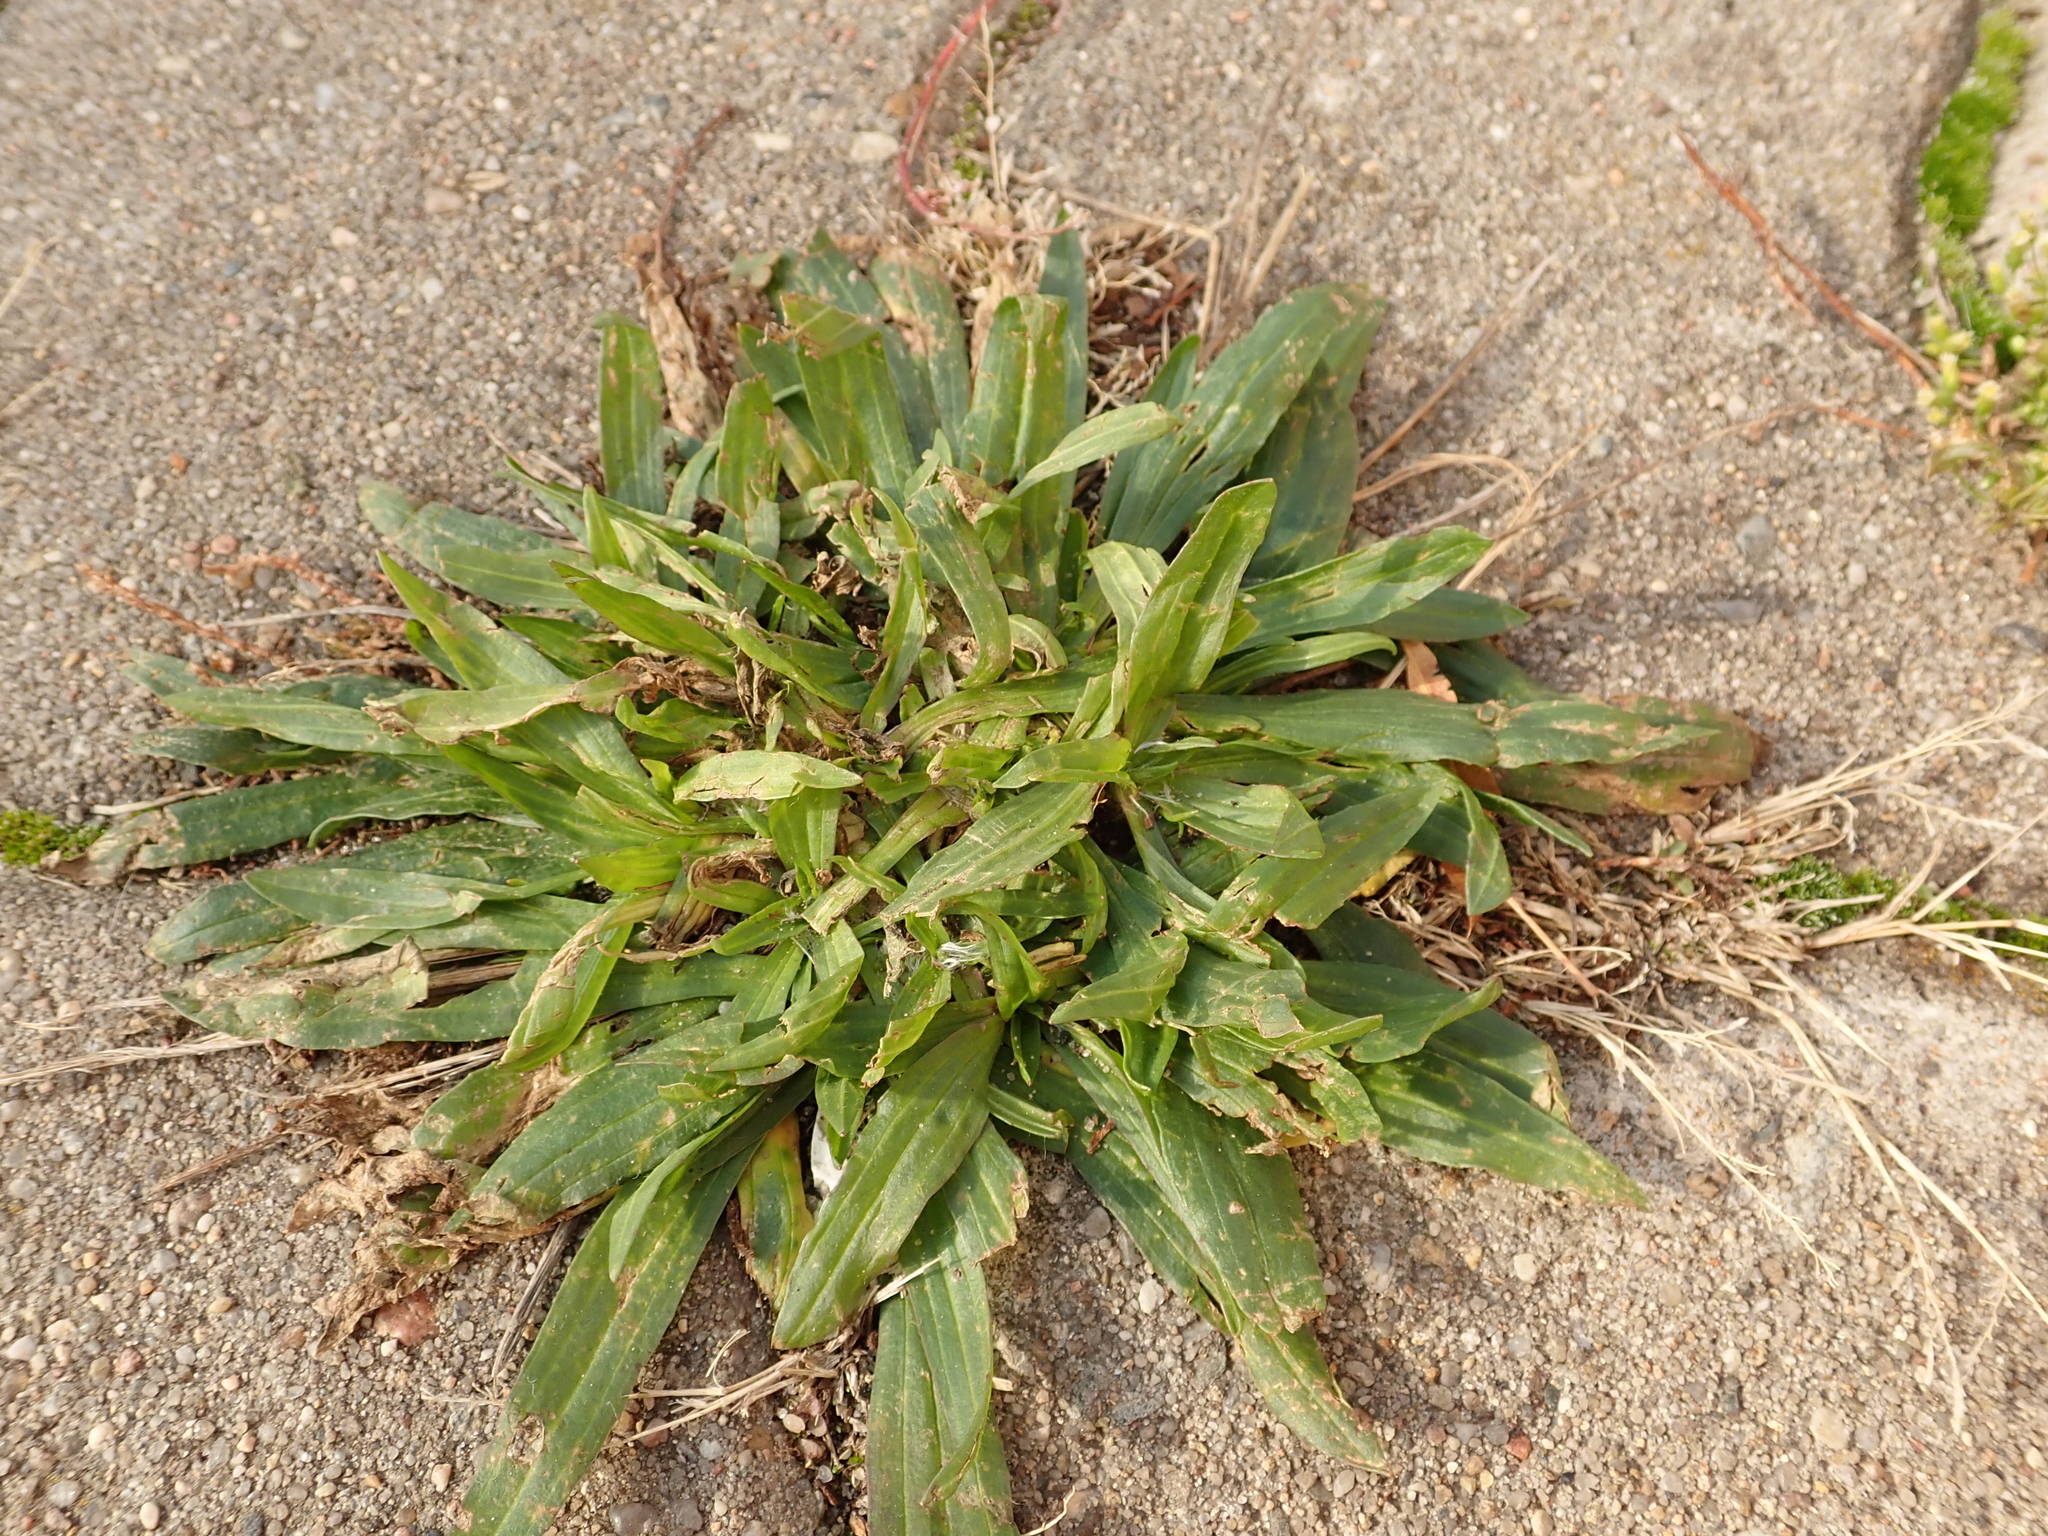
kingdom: Plantae
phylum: Tracheophyta
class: Magnoliopsida
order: Lamiales
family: Plantaginaceae
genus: Plantago
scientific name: Plantago lanceolata
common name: Ribwort plantain
